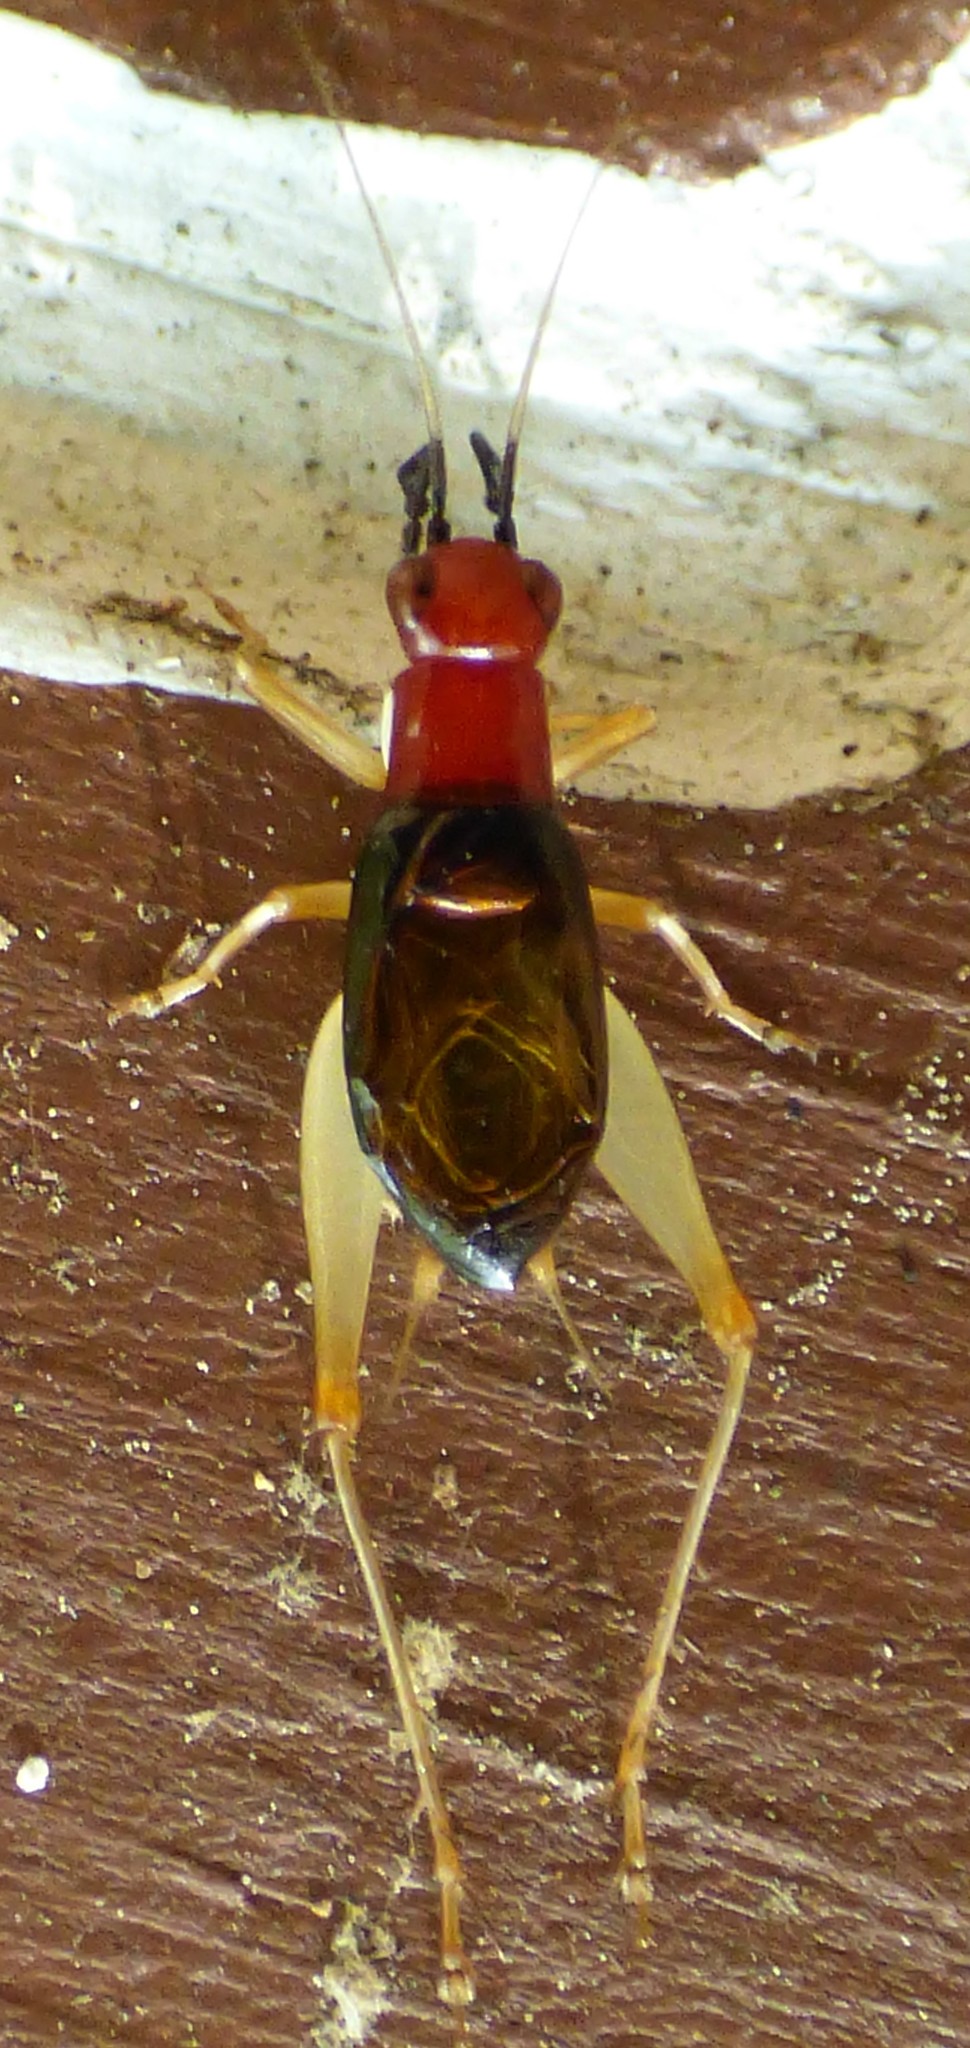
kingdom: Animalia
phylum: Arthropoda
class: Insecta
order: Orthoptera
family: Trigonidiidae
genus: Phyllopalpus
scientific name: Phyllopalpus pulchellus
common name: Handsome trig
